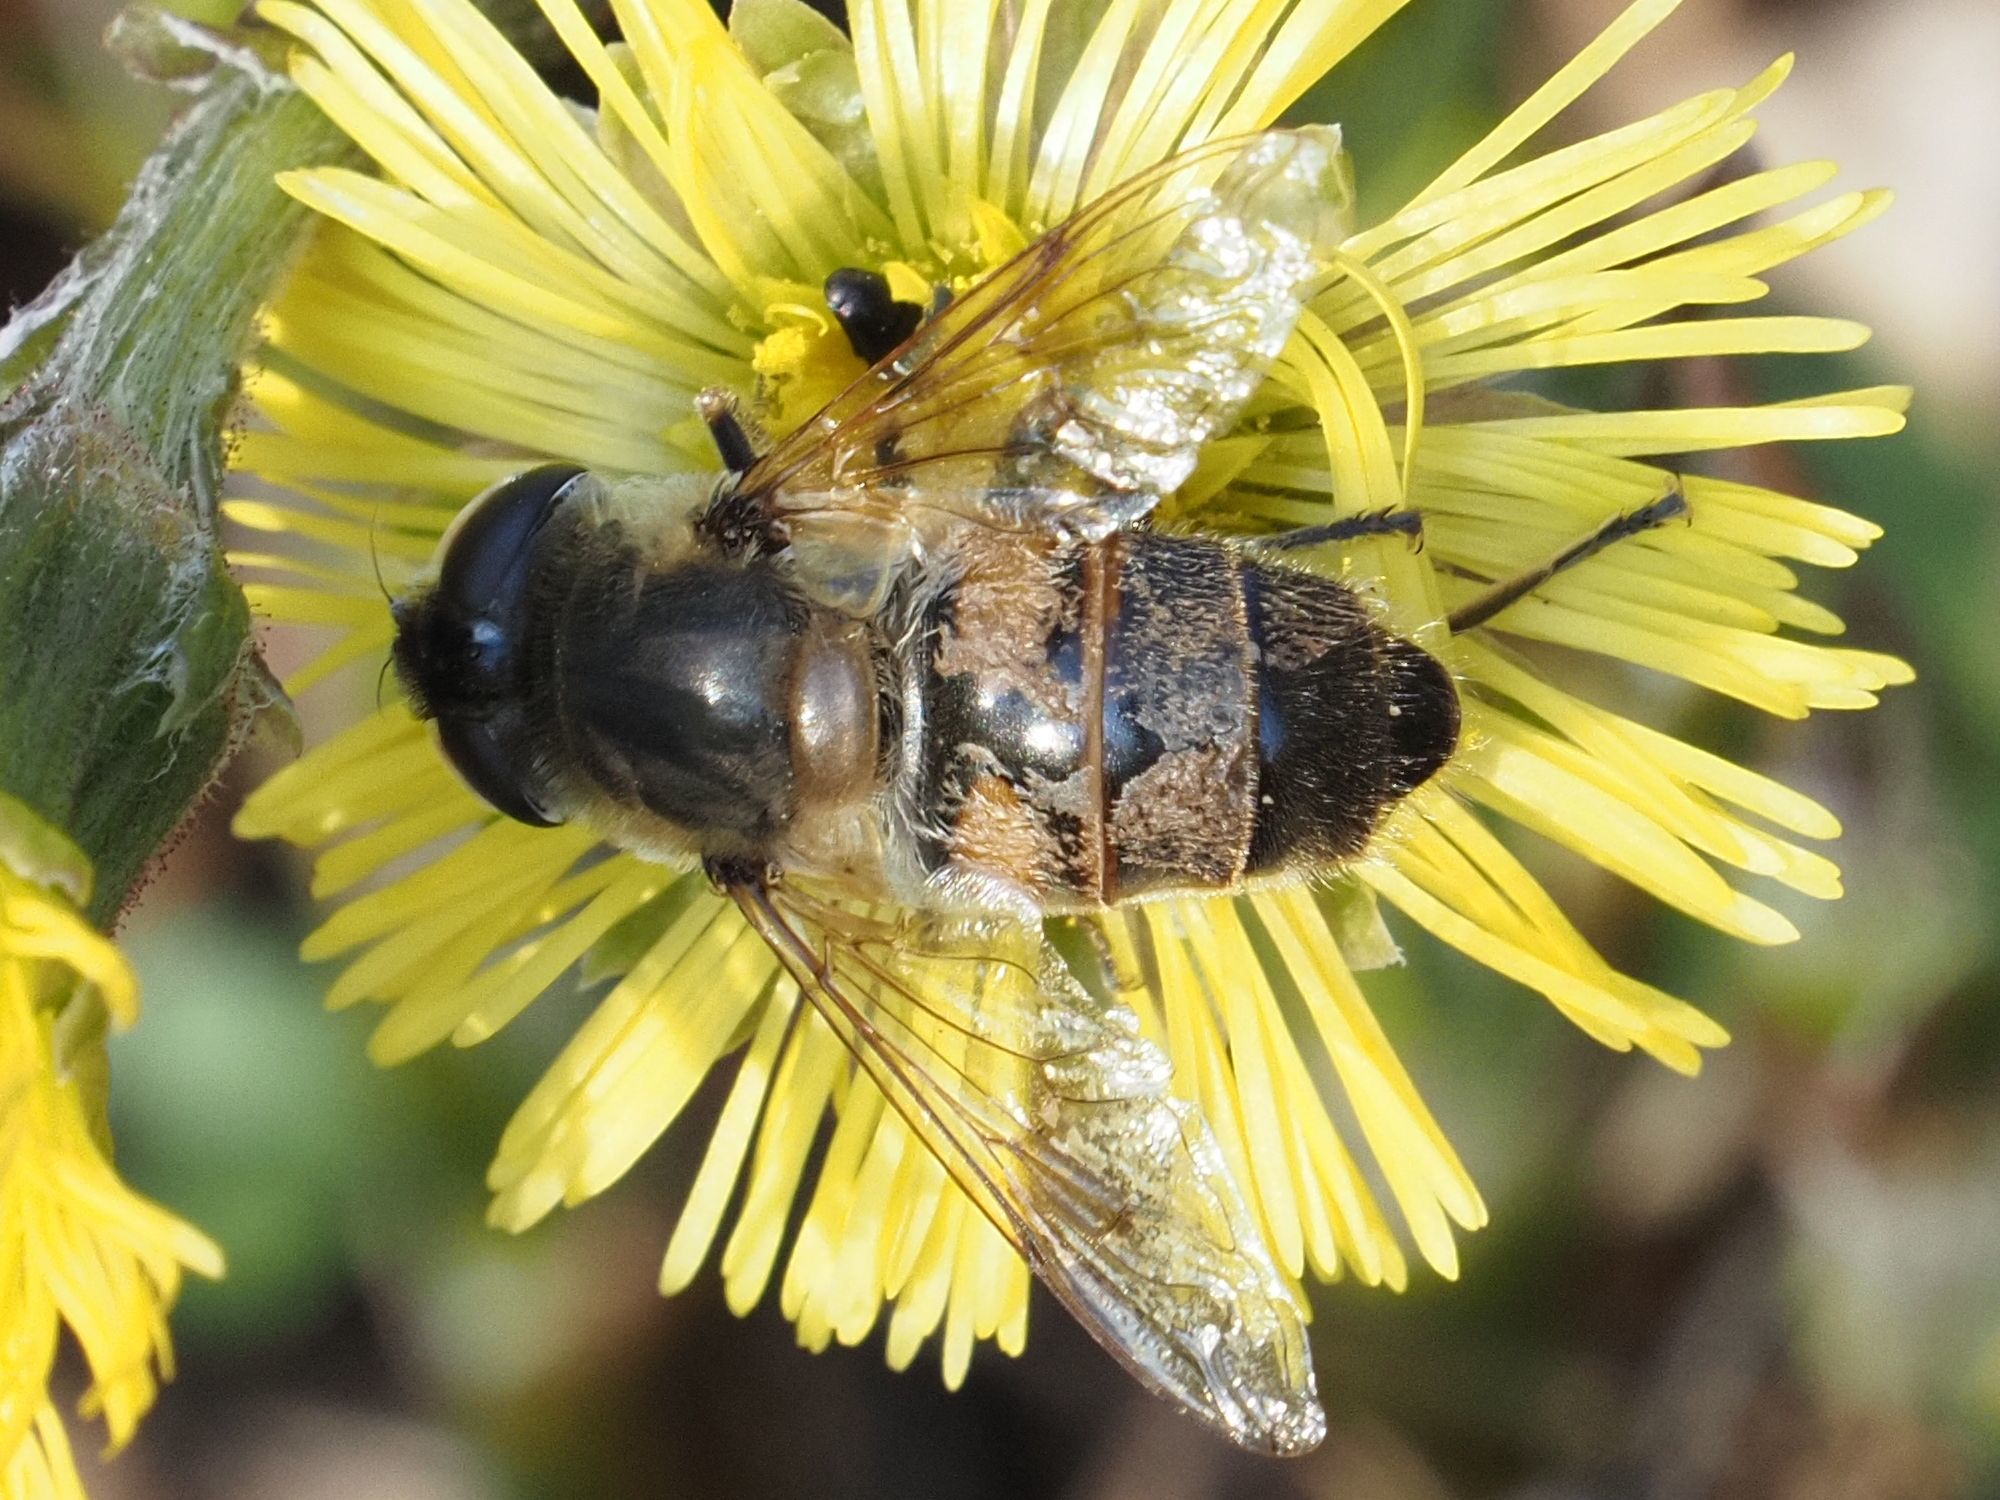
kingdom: Animalia
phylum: Arthropoda
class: Insecta
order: Diptera
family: Syrphidae
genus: Eristalis
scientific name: Eristalis tenax
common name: Drone fly
